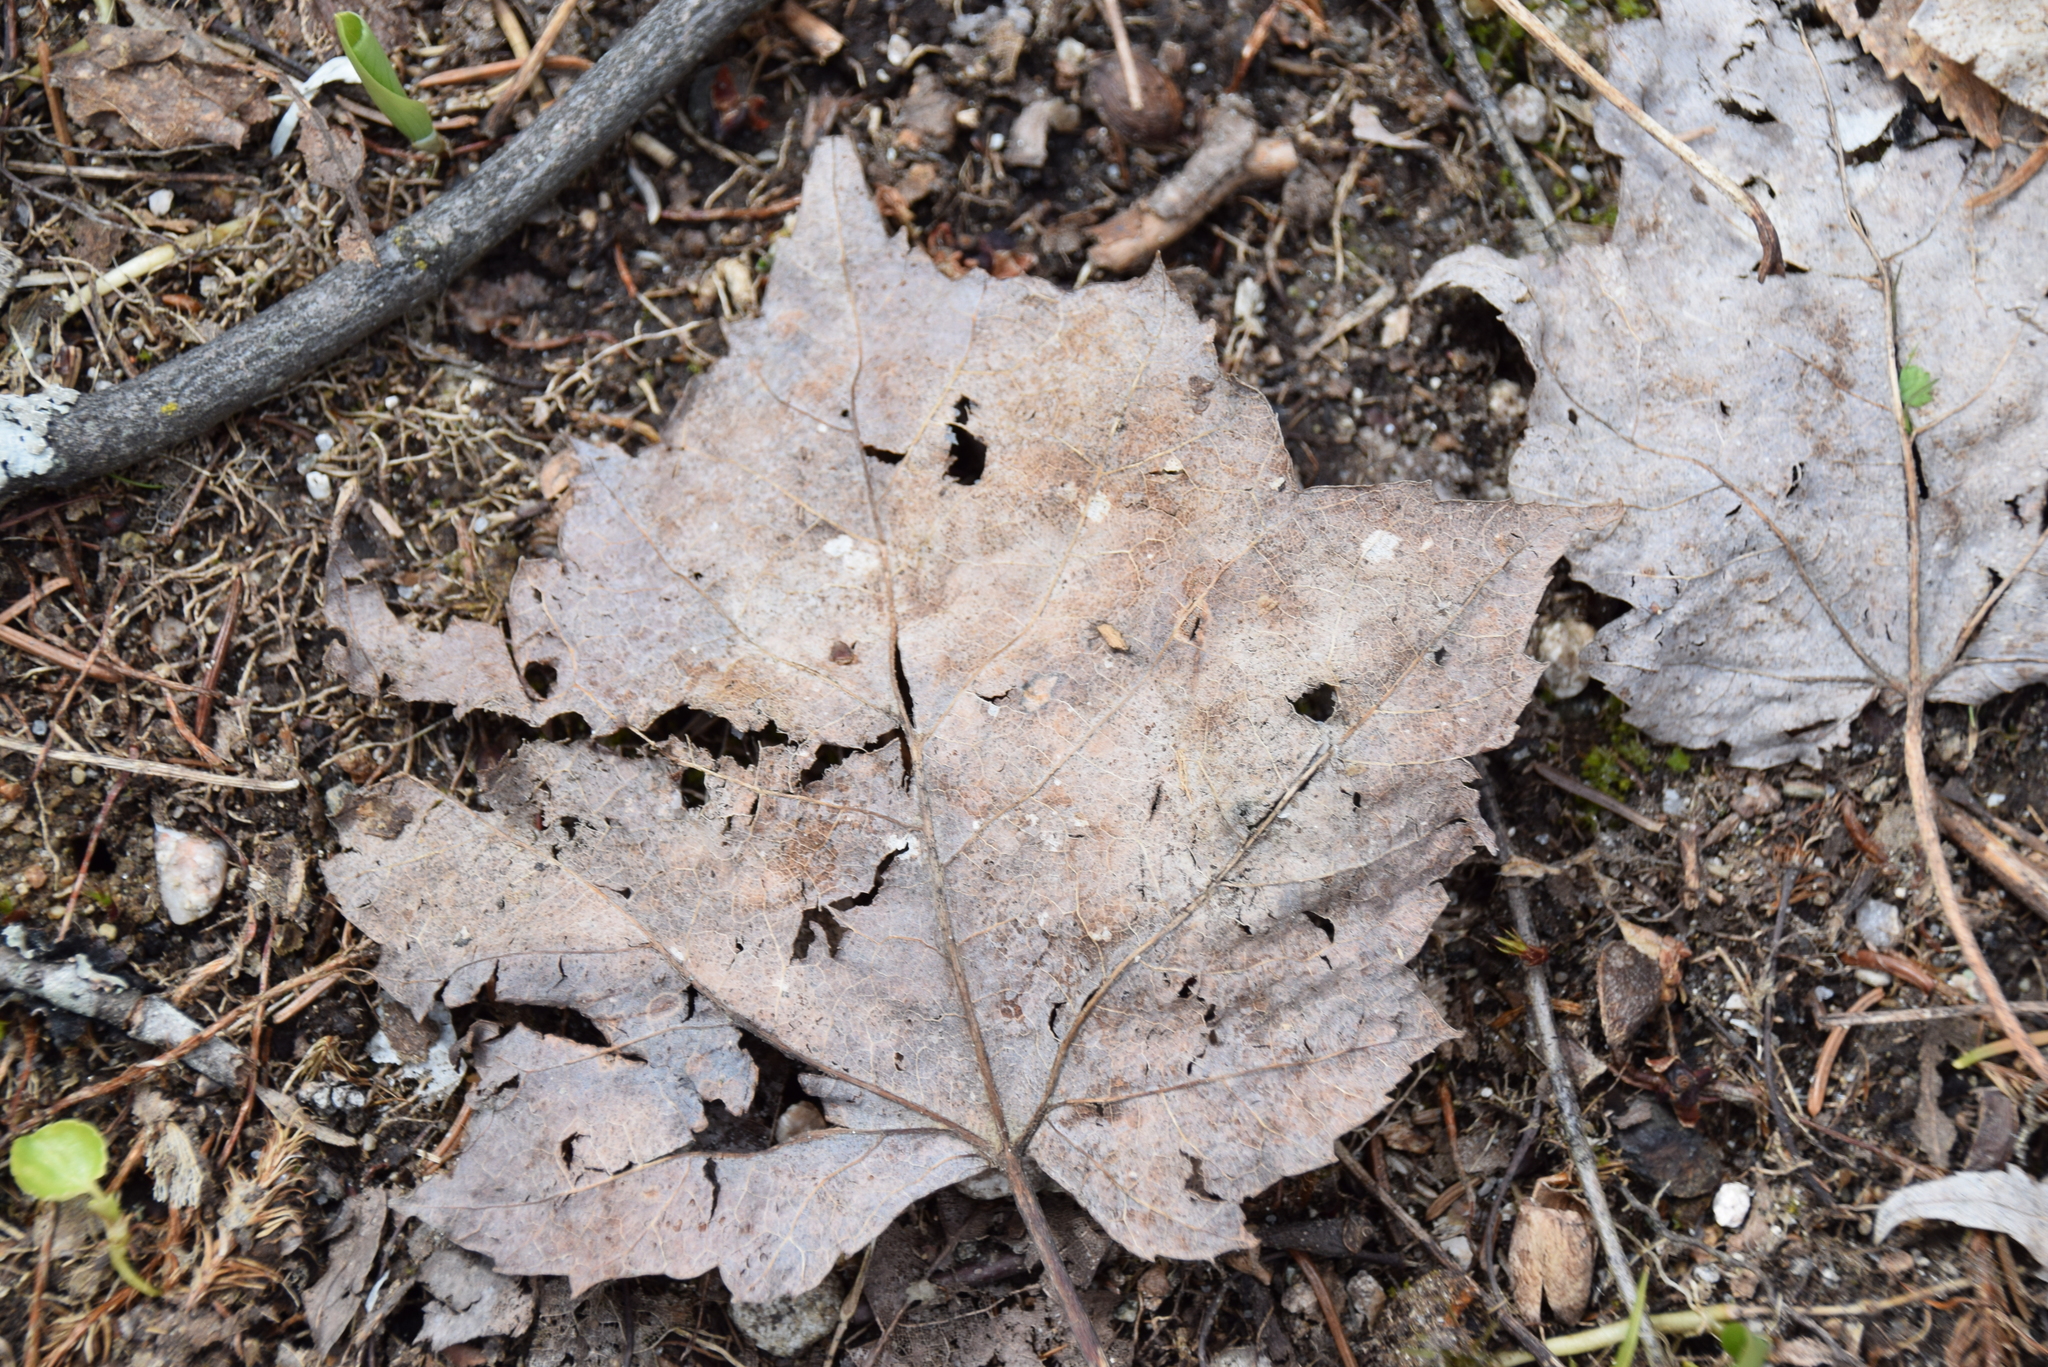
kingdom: Plantae
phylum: Tracheophyta
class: Magnoliopsida
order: Sapindales
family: Sapindaceae
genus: Acer
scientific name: Acer rubrum
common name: Red maple
